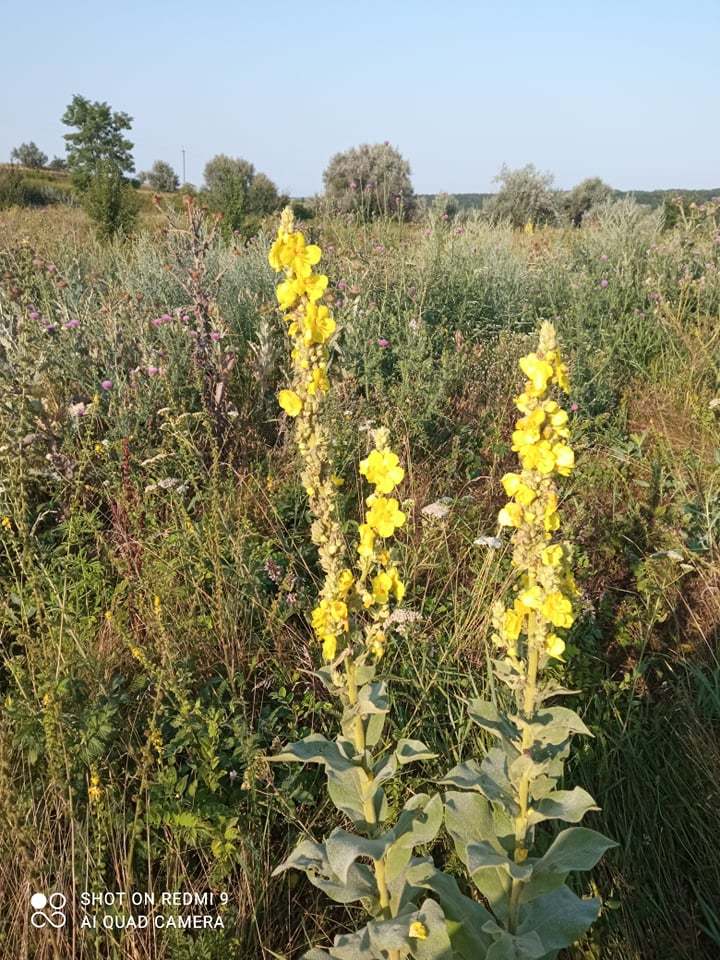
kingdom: Plantae
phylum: Tracheophyta
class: Magnoliopsida
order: Lamiales
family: Scrophulariaceae
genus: Verbascum
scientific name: Verbascum densiflorum
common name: Dense-flowered mullein
